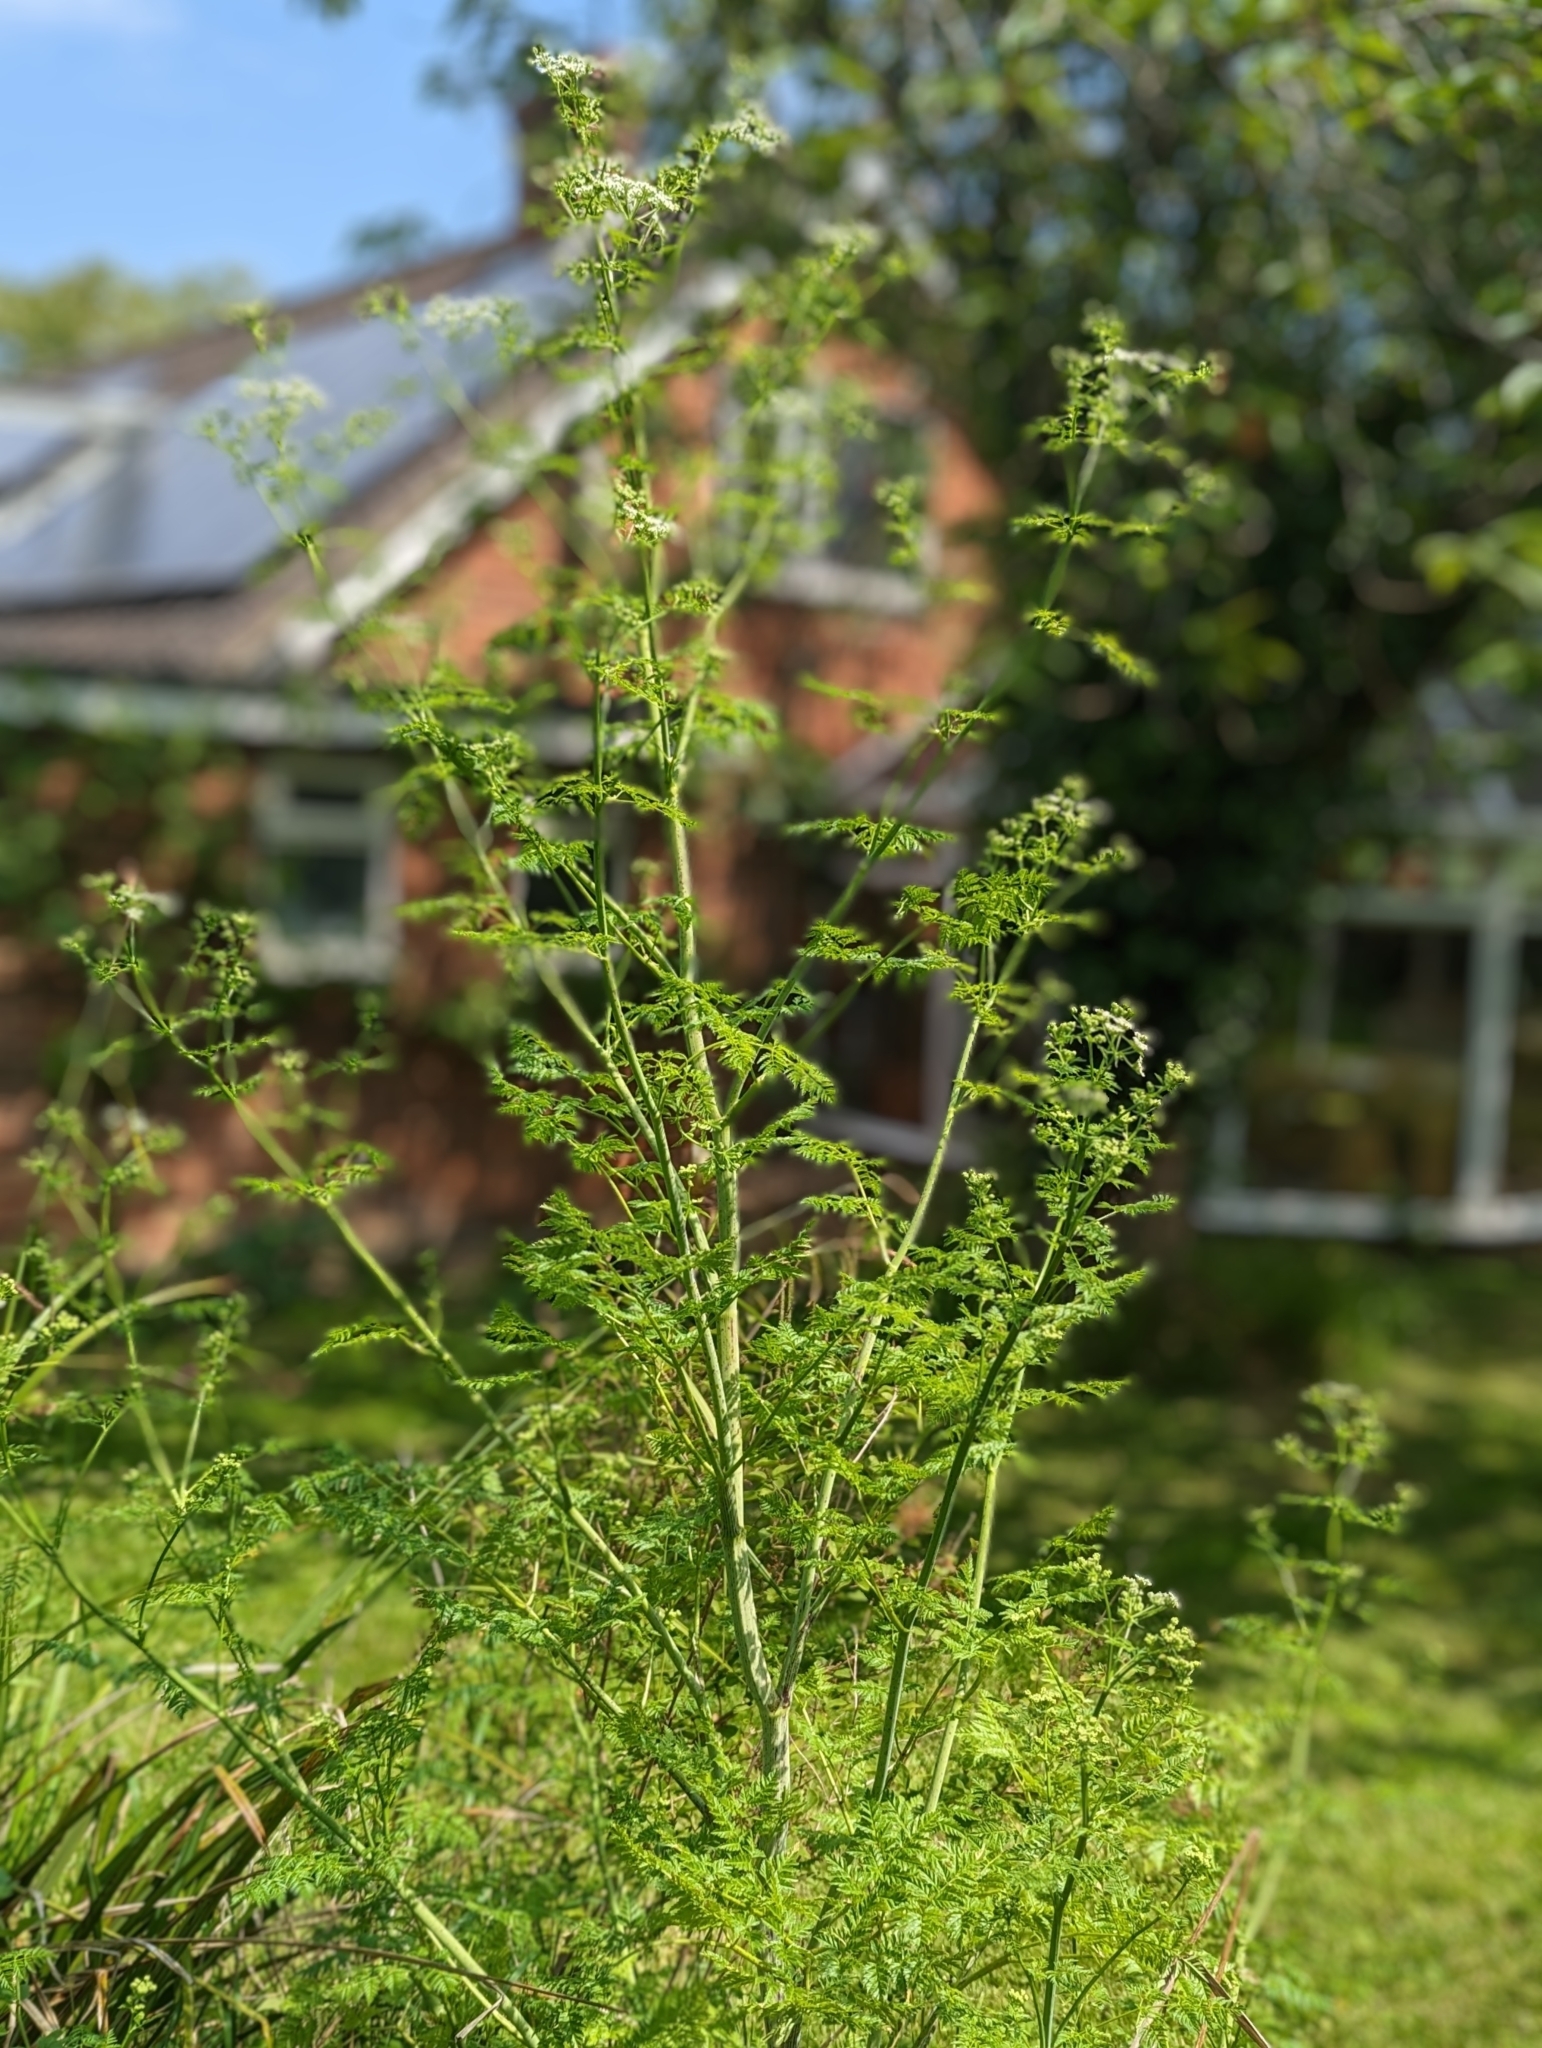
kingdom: Plantae
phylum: Tracheophyta
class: Magnoliopsida
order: Apiales
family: Apiaceae
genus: Conium
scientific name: Conium maculatum
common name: Hemlock
